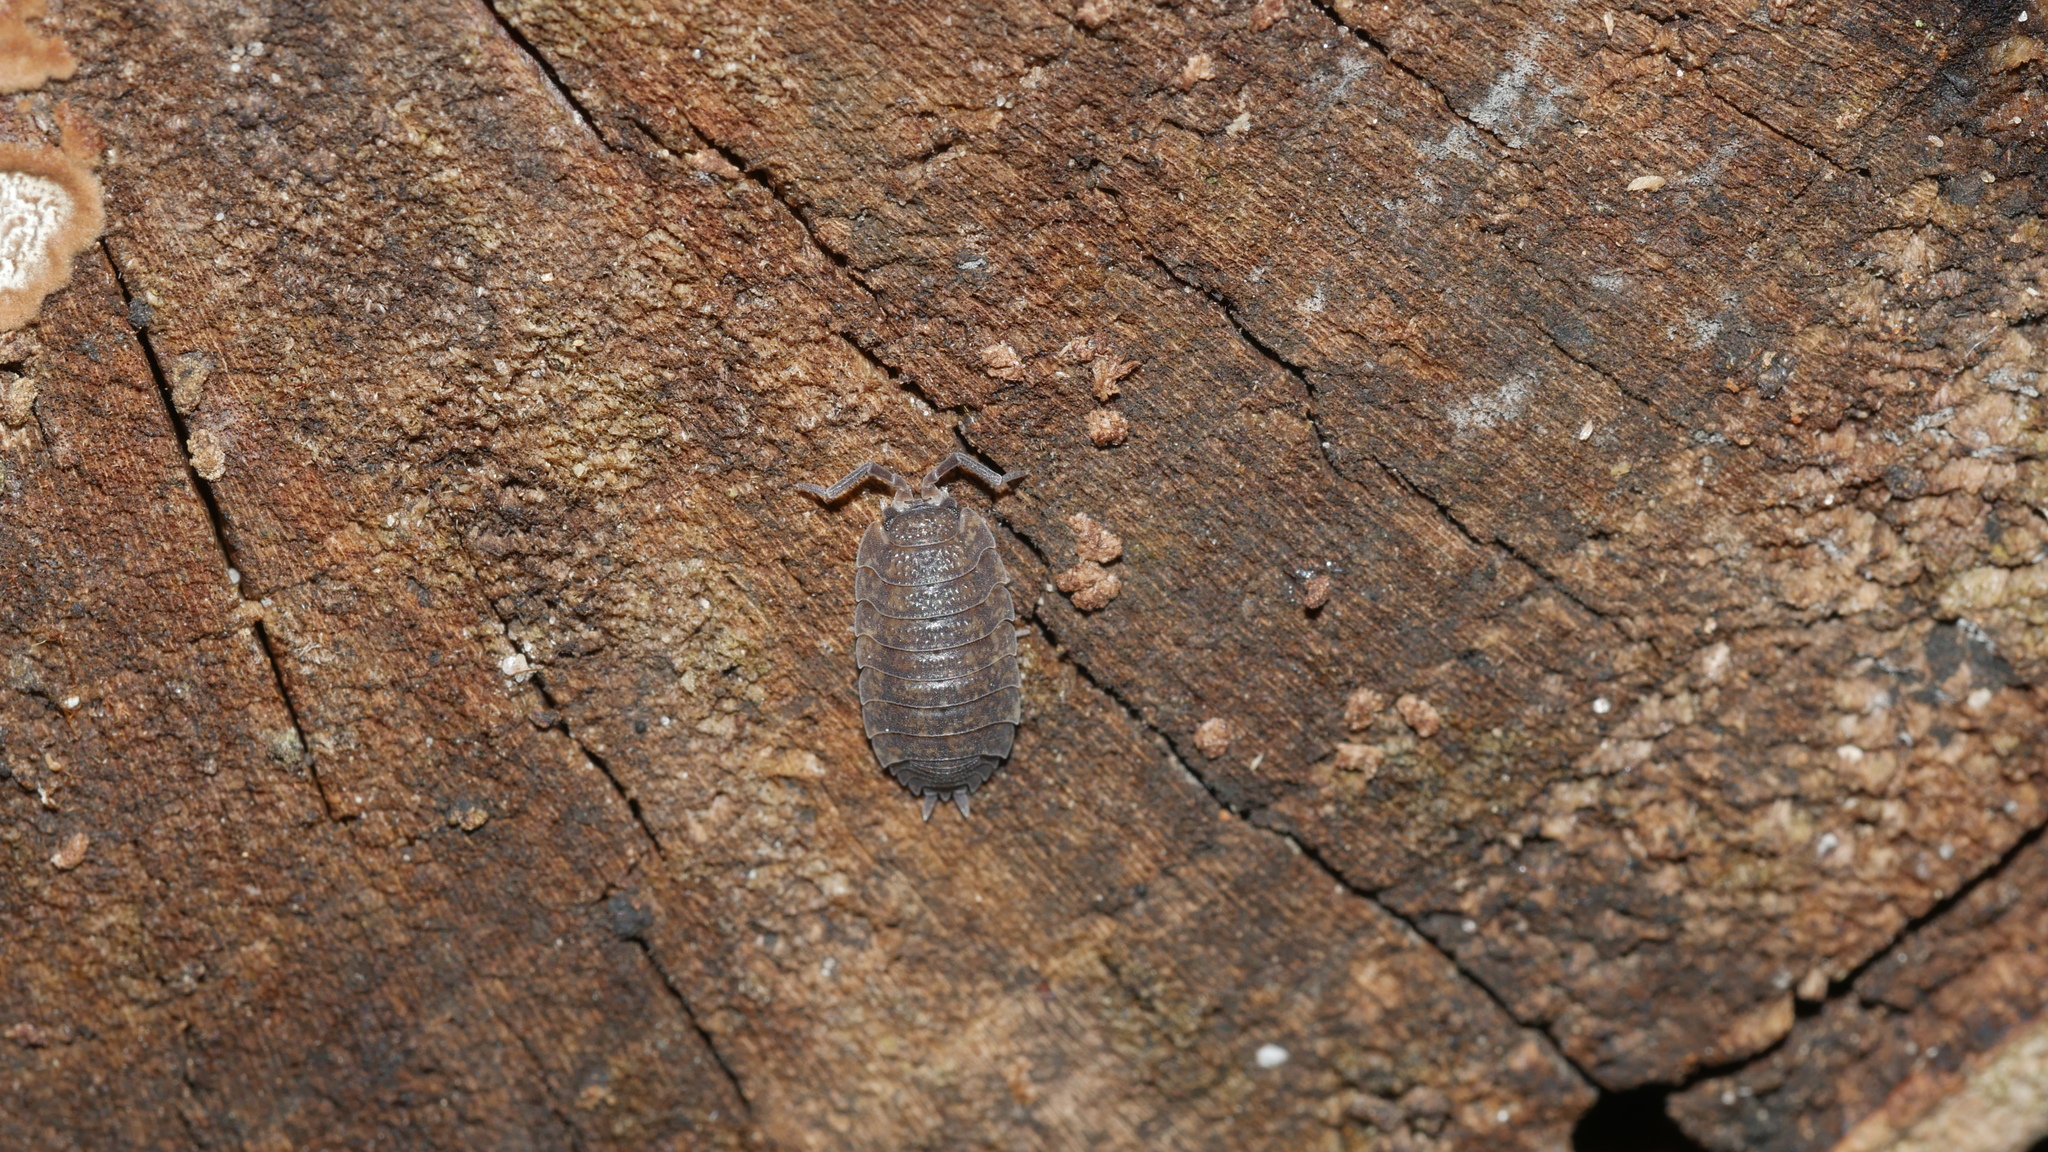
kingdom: Animalia
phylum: Arthropoda
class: Malacostraca
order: Isopoda
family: Porcellionidae
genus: Porcellio
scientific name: Porcellio scaber
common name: Common rough woodlouse
